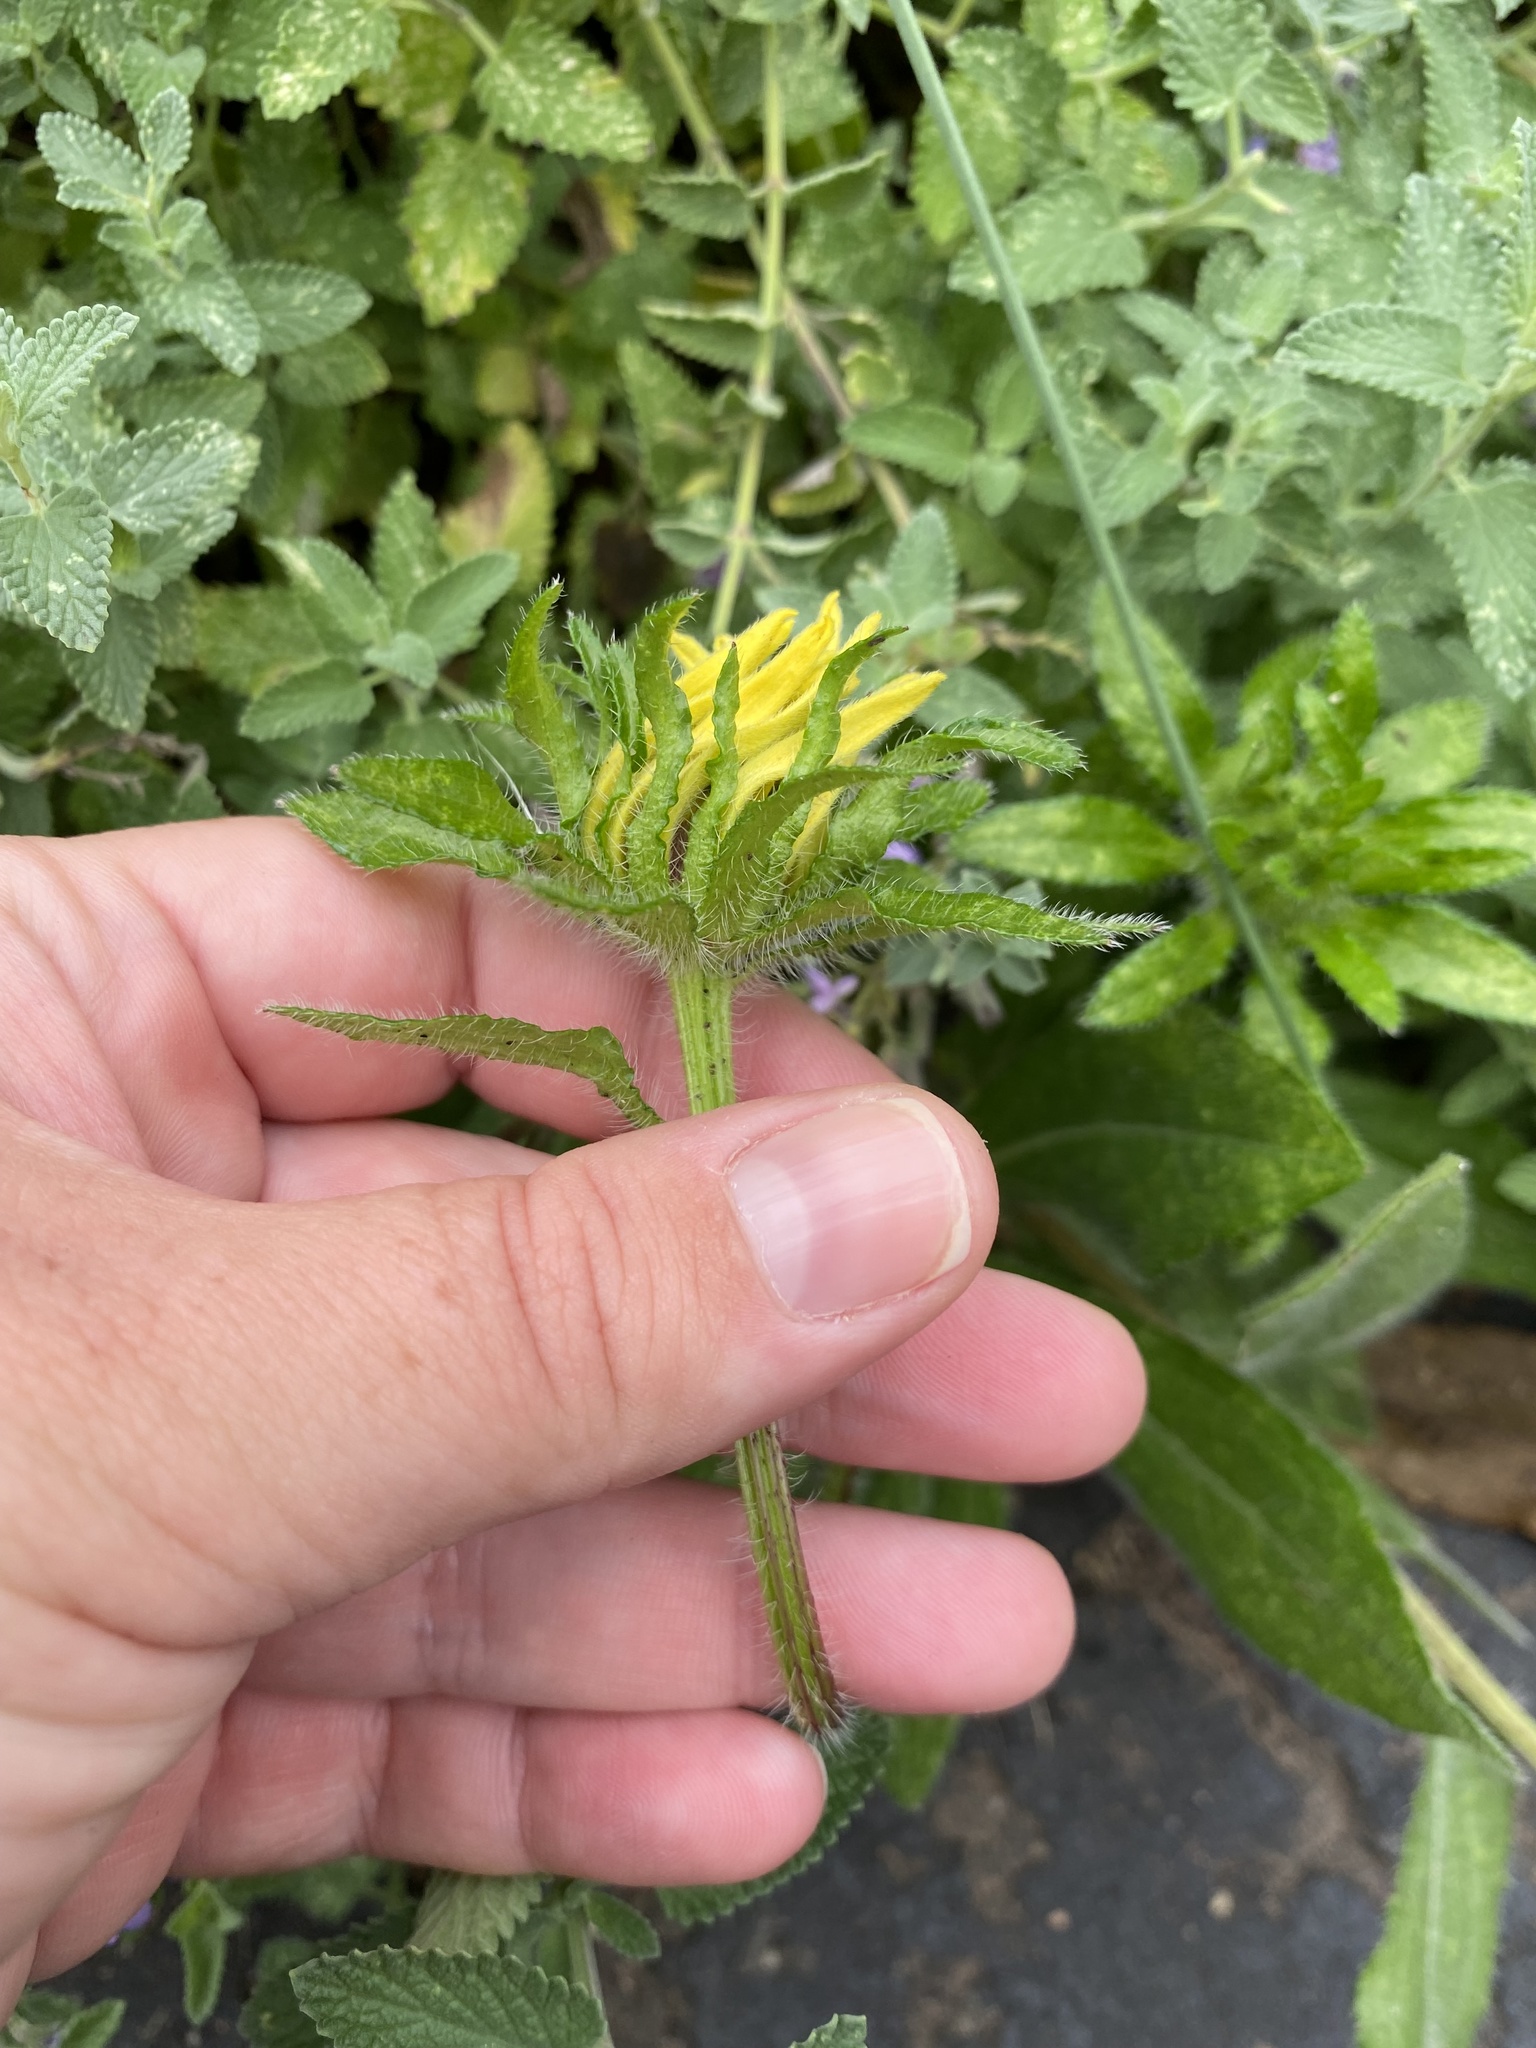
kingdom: Plantae
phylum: Tracheophyta
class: Magnoliopsida
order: Asterales
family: Asteraceae
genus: Rudbeckia
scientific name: Rudbeckia hirta
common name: Black-eyed-susan
